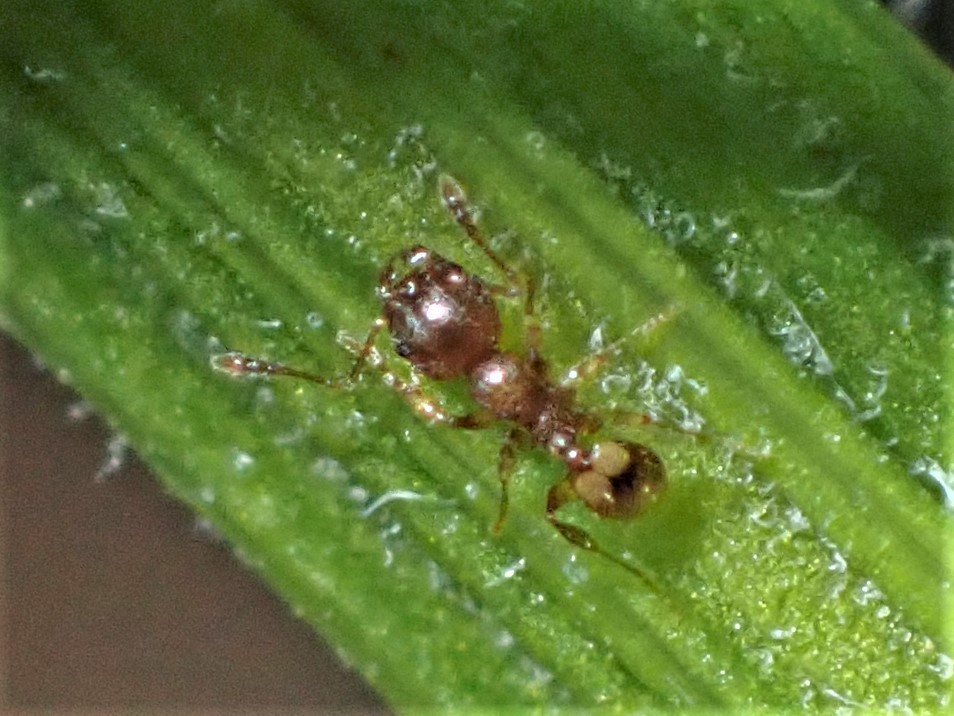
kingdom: Animalia
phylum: Arthropoda
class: Insecta
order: Hymenoptera
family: Formicidae
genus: Pheidole
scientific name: Pheidole rugosula
